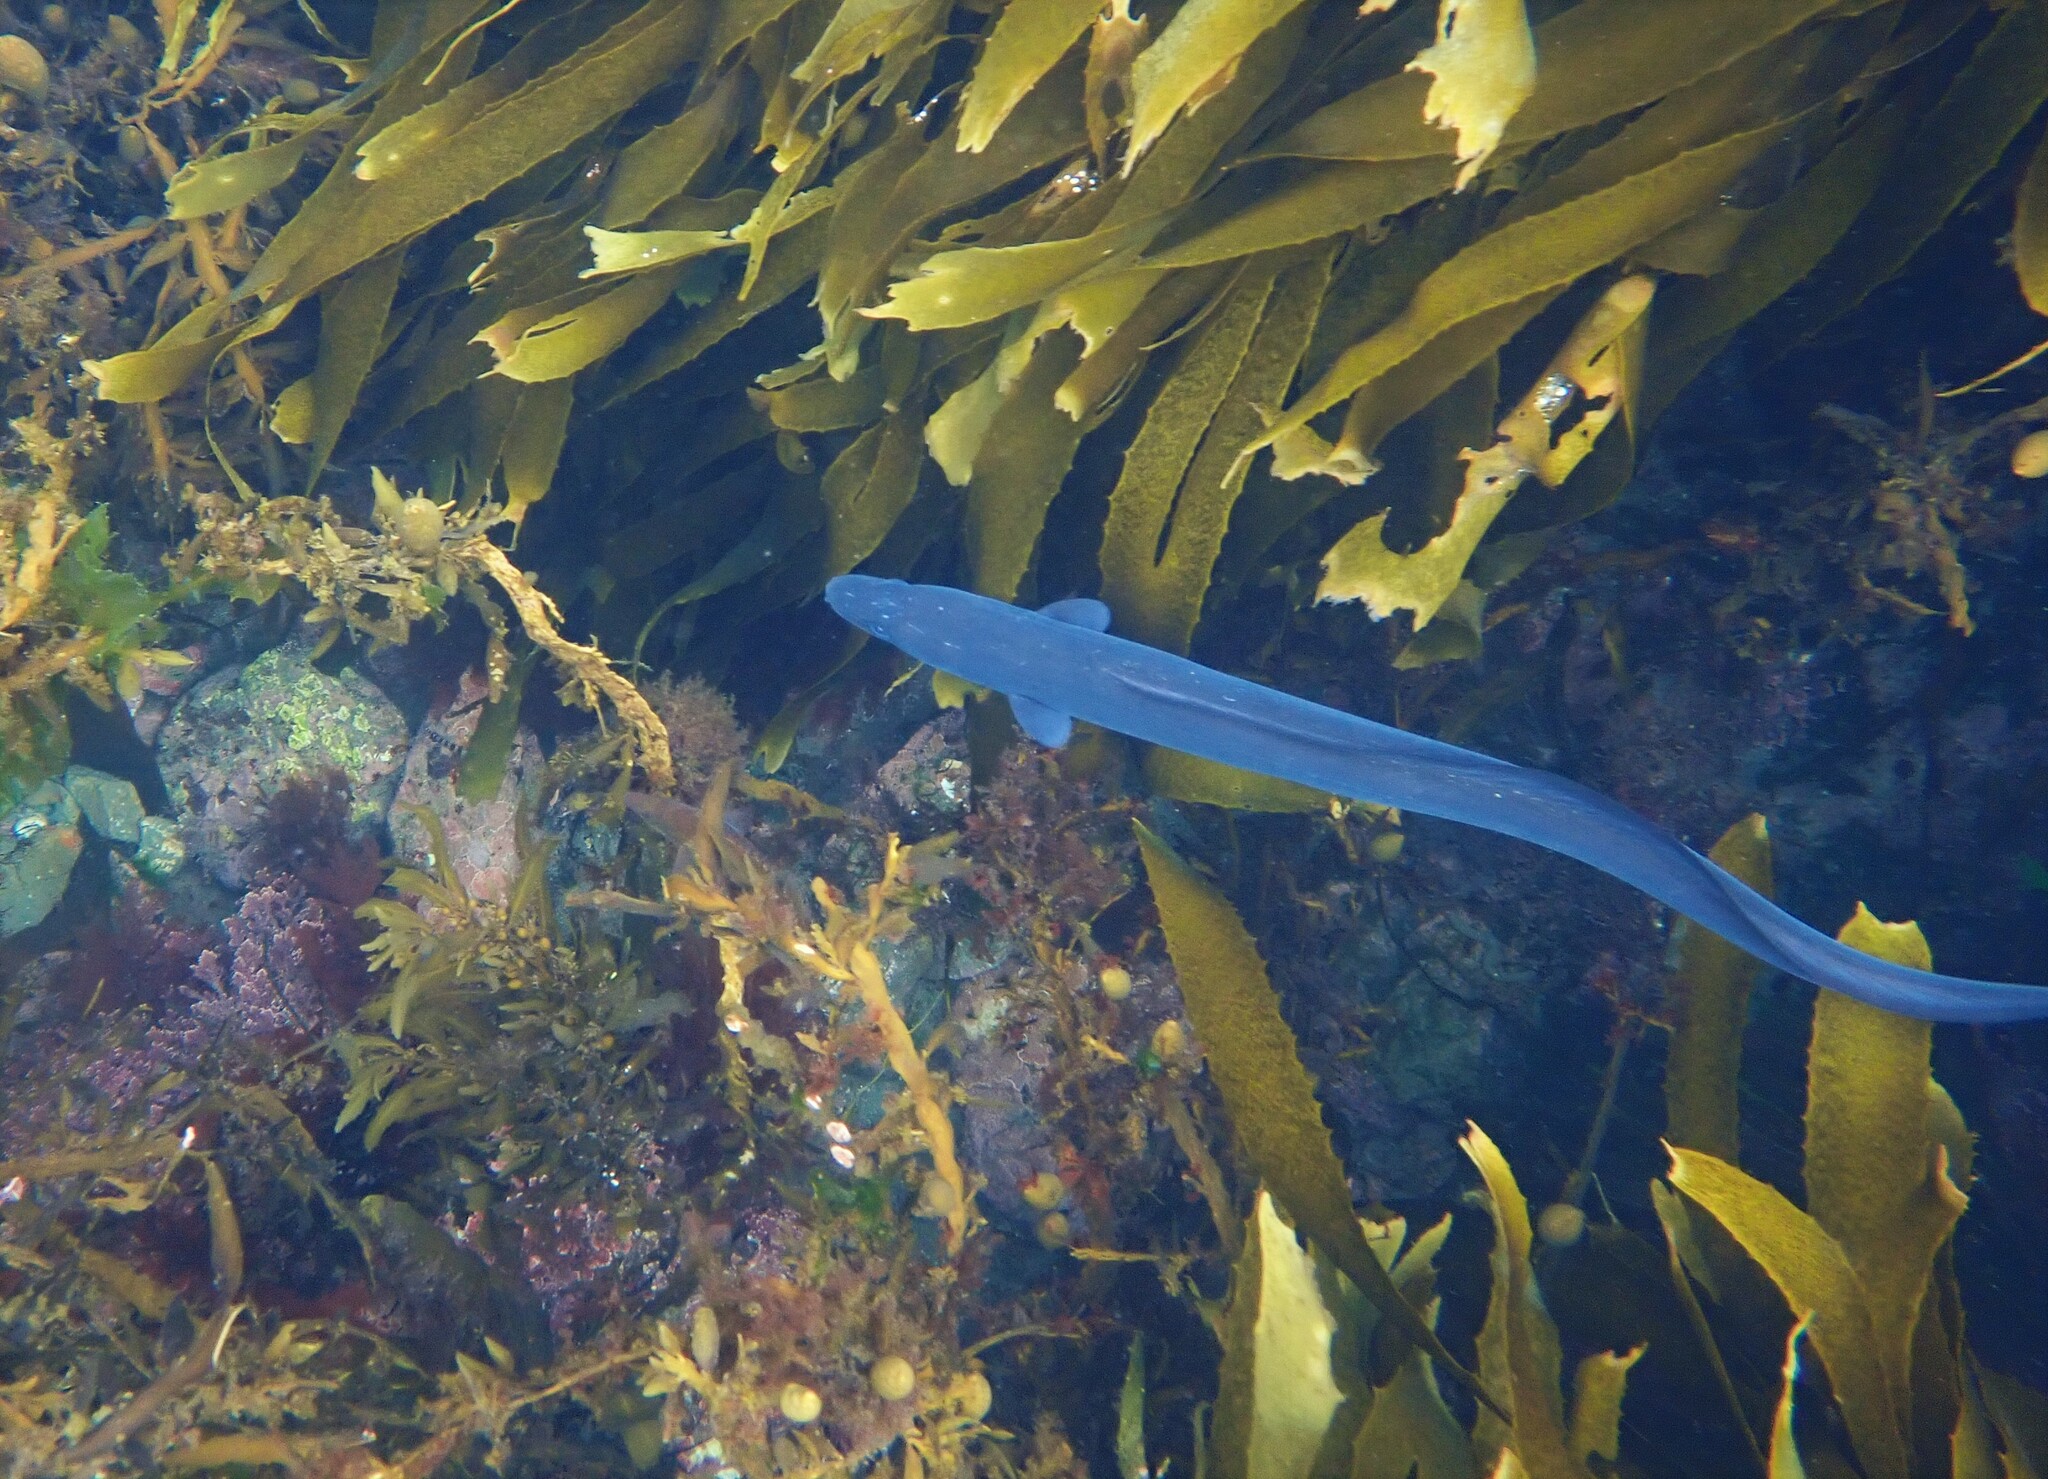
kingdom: Animalia
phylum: Chordata
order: Anguilliformes
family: Congridae
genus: Conger
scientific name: Conger verreauxi
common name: Conger eel
